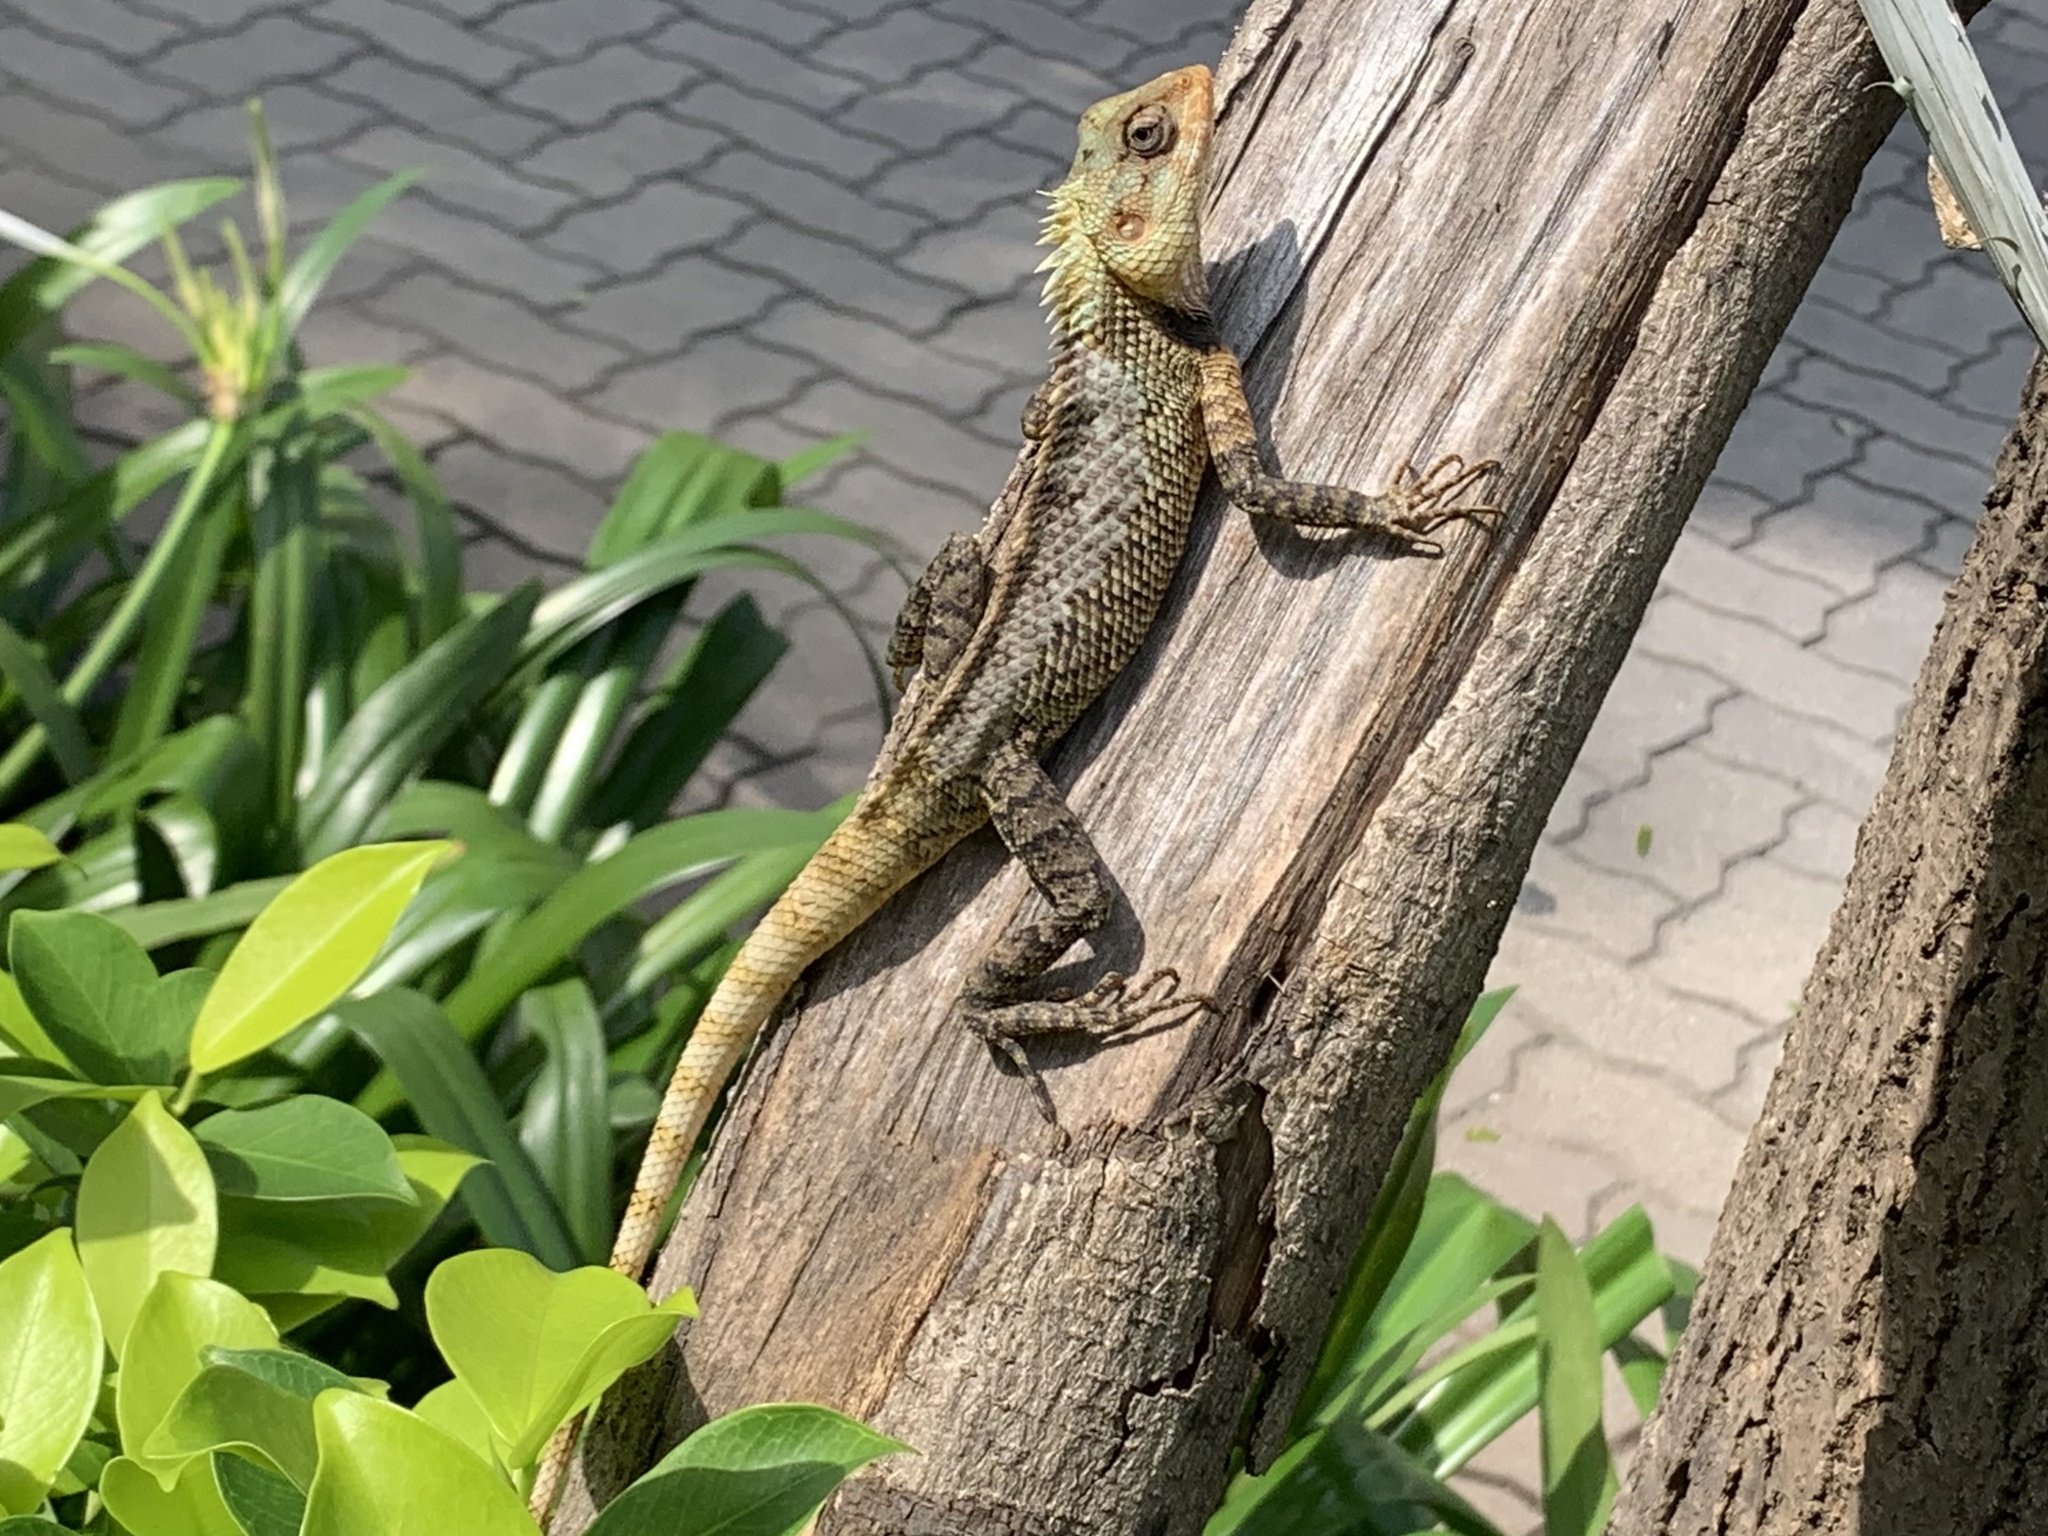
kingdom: Animalia
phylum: Chordata
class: Squamata
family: Agamidae
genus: Calotes
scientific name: Calotes versicolor
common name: Oriental garden lizard
